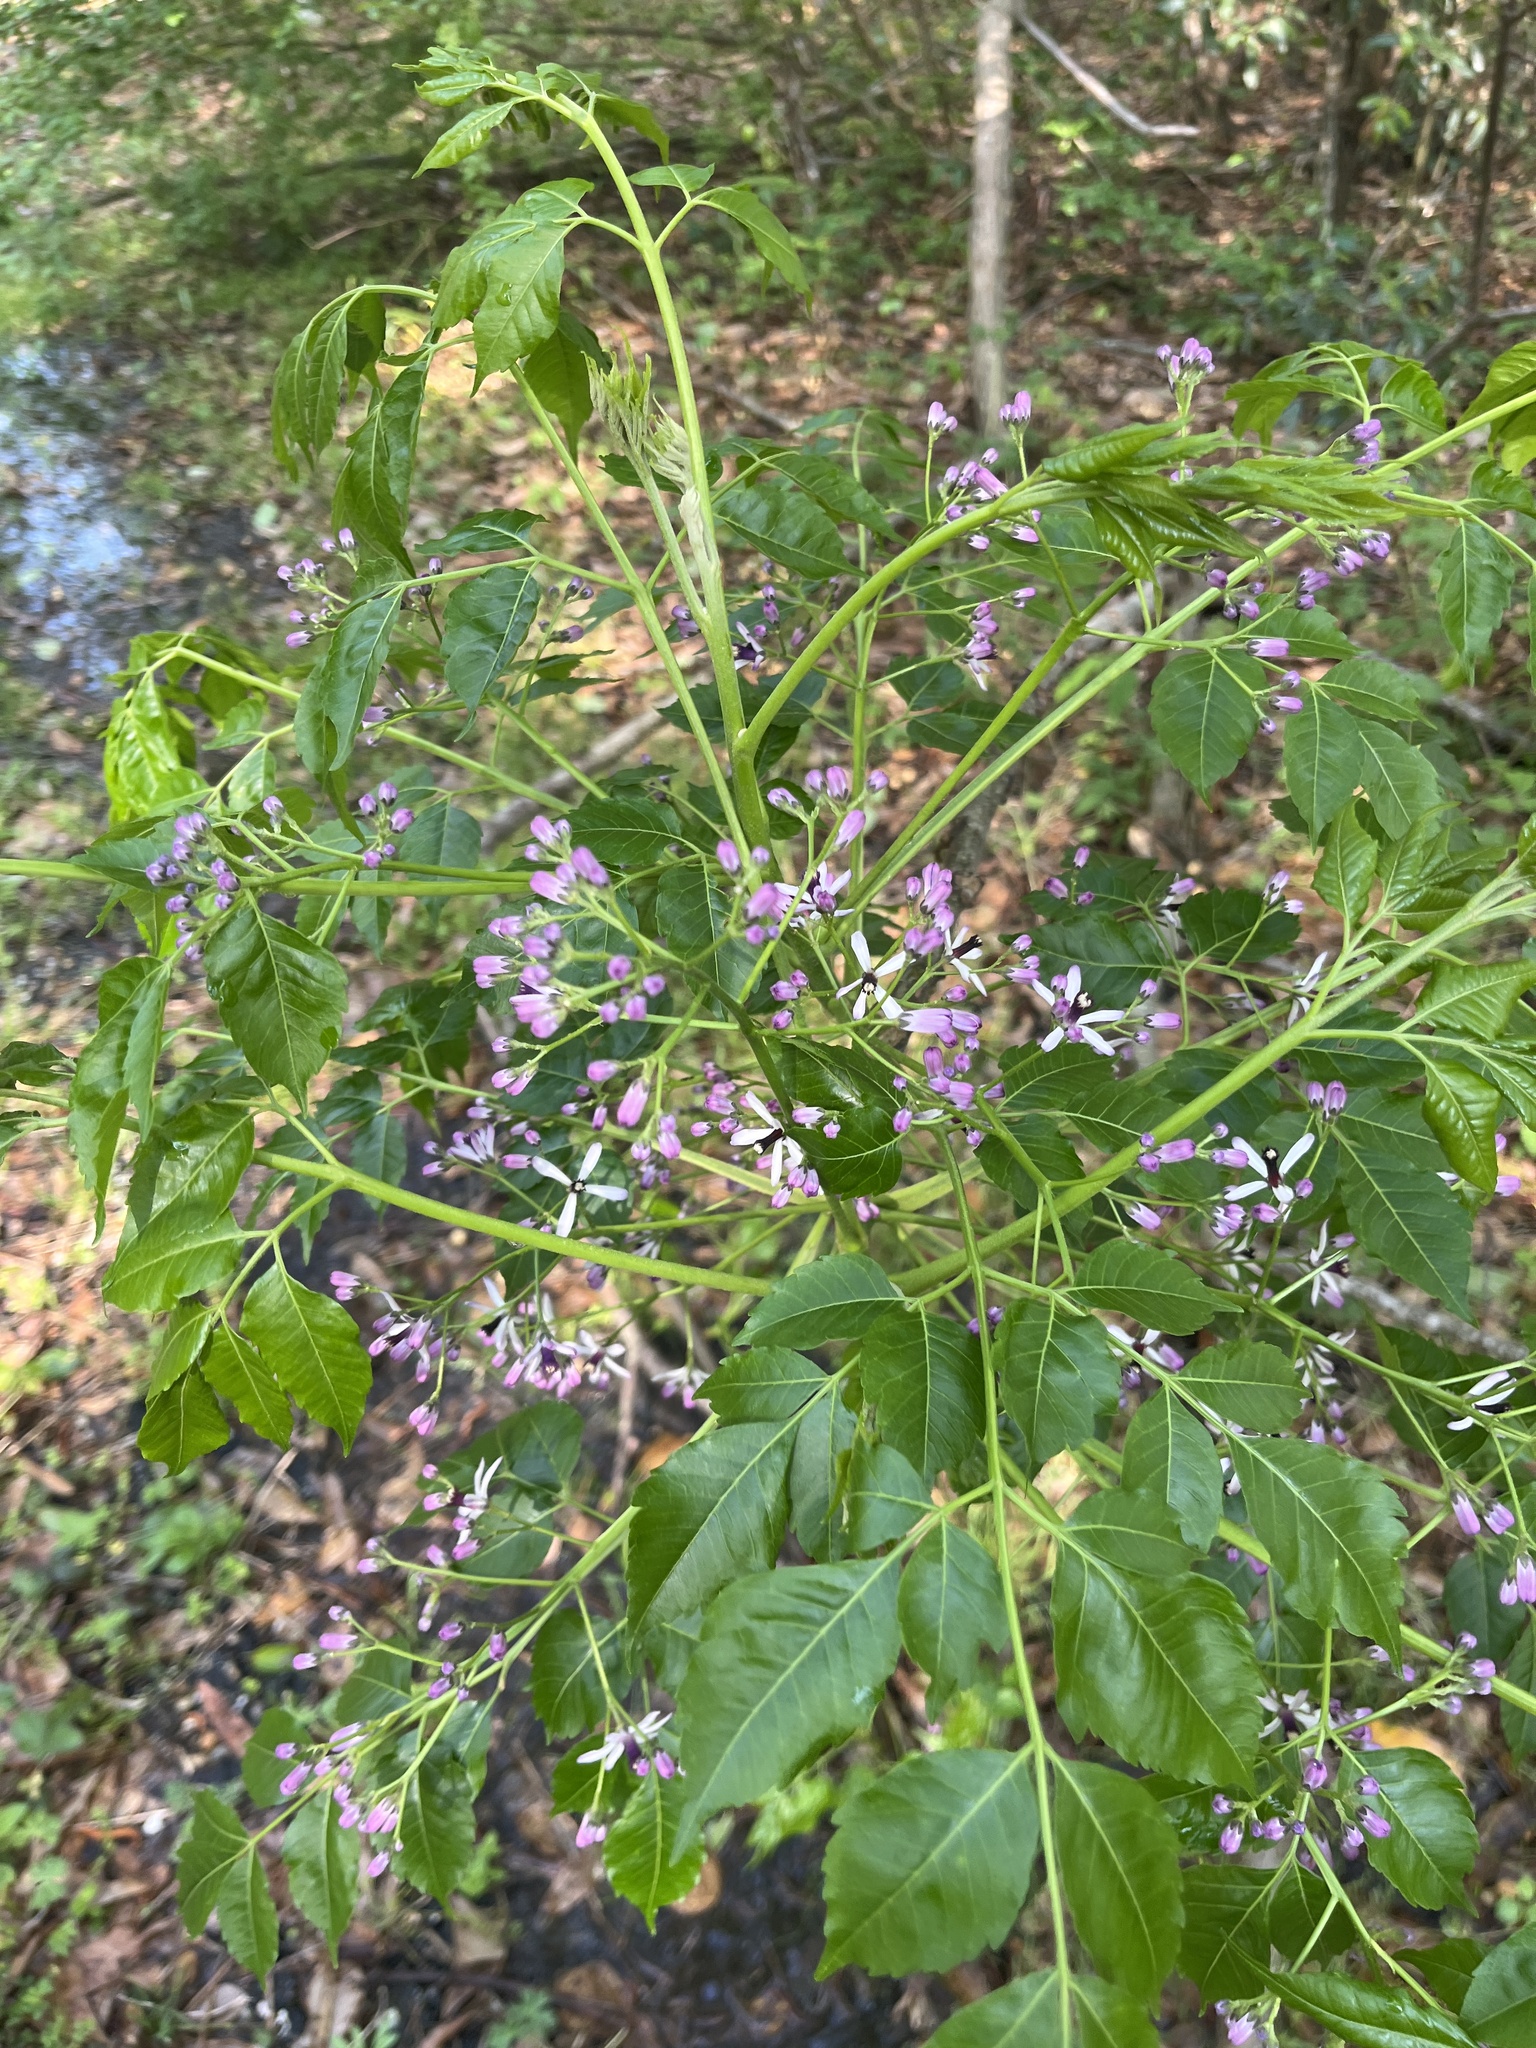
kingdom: Plantae
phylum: Tracheophyta
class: Magnoliopsida
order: Sapindales
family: Meliaceae
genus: Melia
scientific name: Melia azedarach
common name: Chinaberrytree
